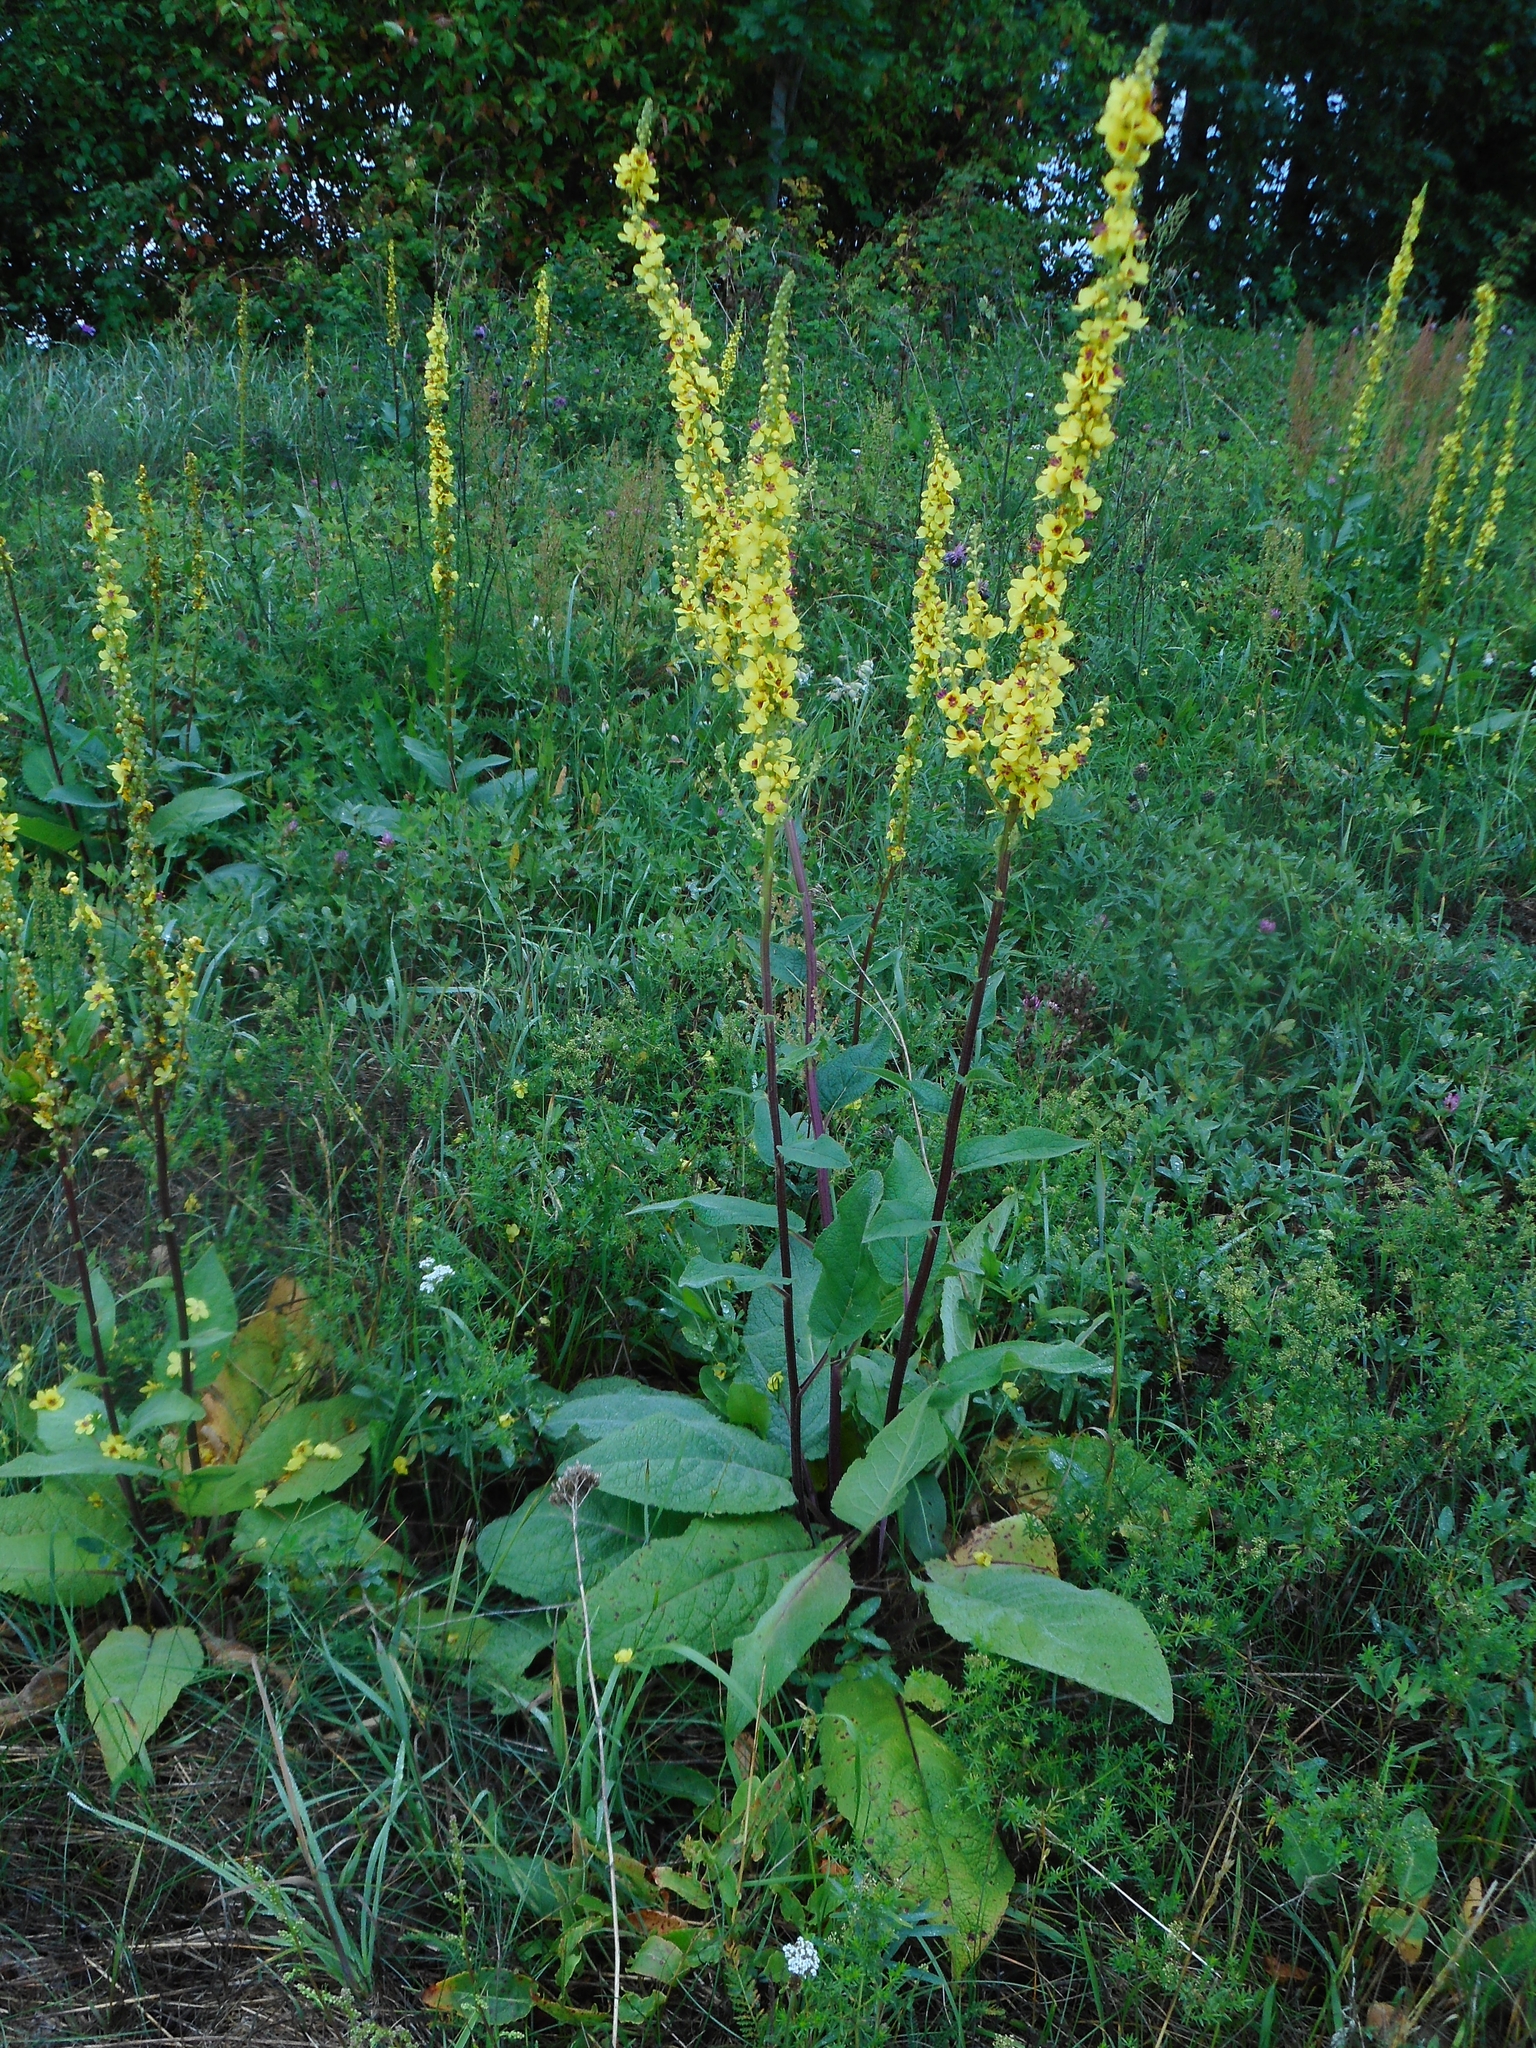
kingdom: Plantae
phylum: Tracheophyta
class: Magnoliopsida
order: Lamiales
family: Scrophulariaceae
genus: Verbascum
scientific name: Verbascum nigrum
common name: Dark mullein
